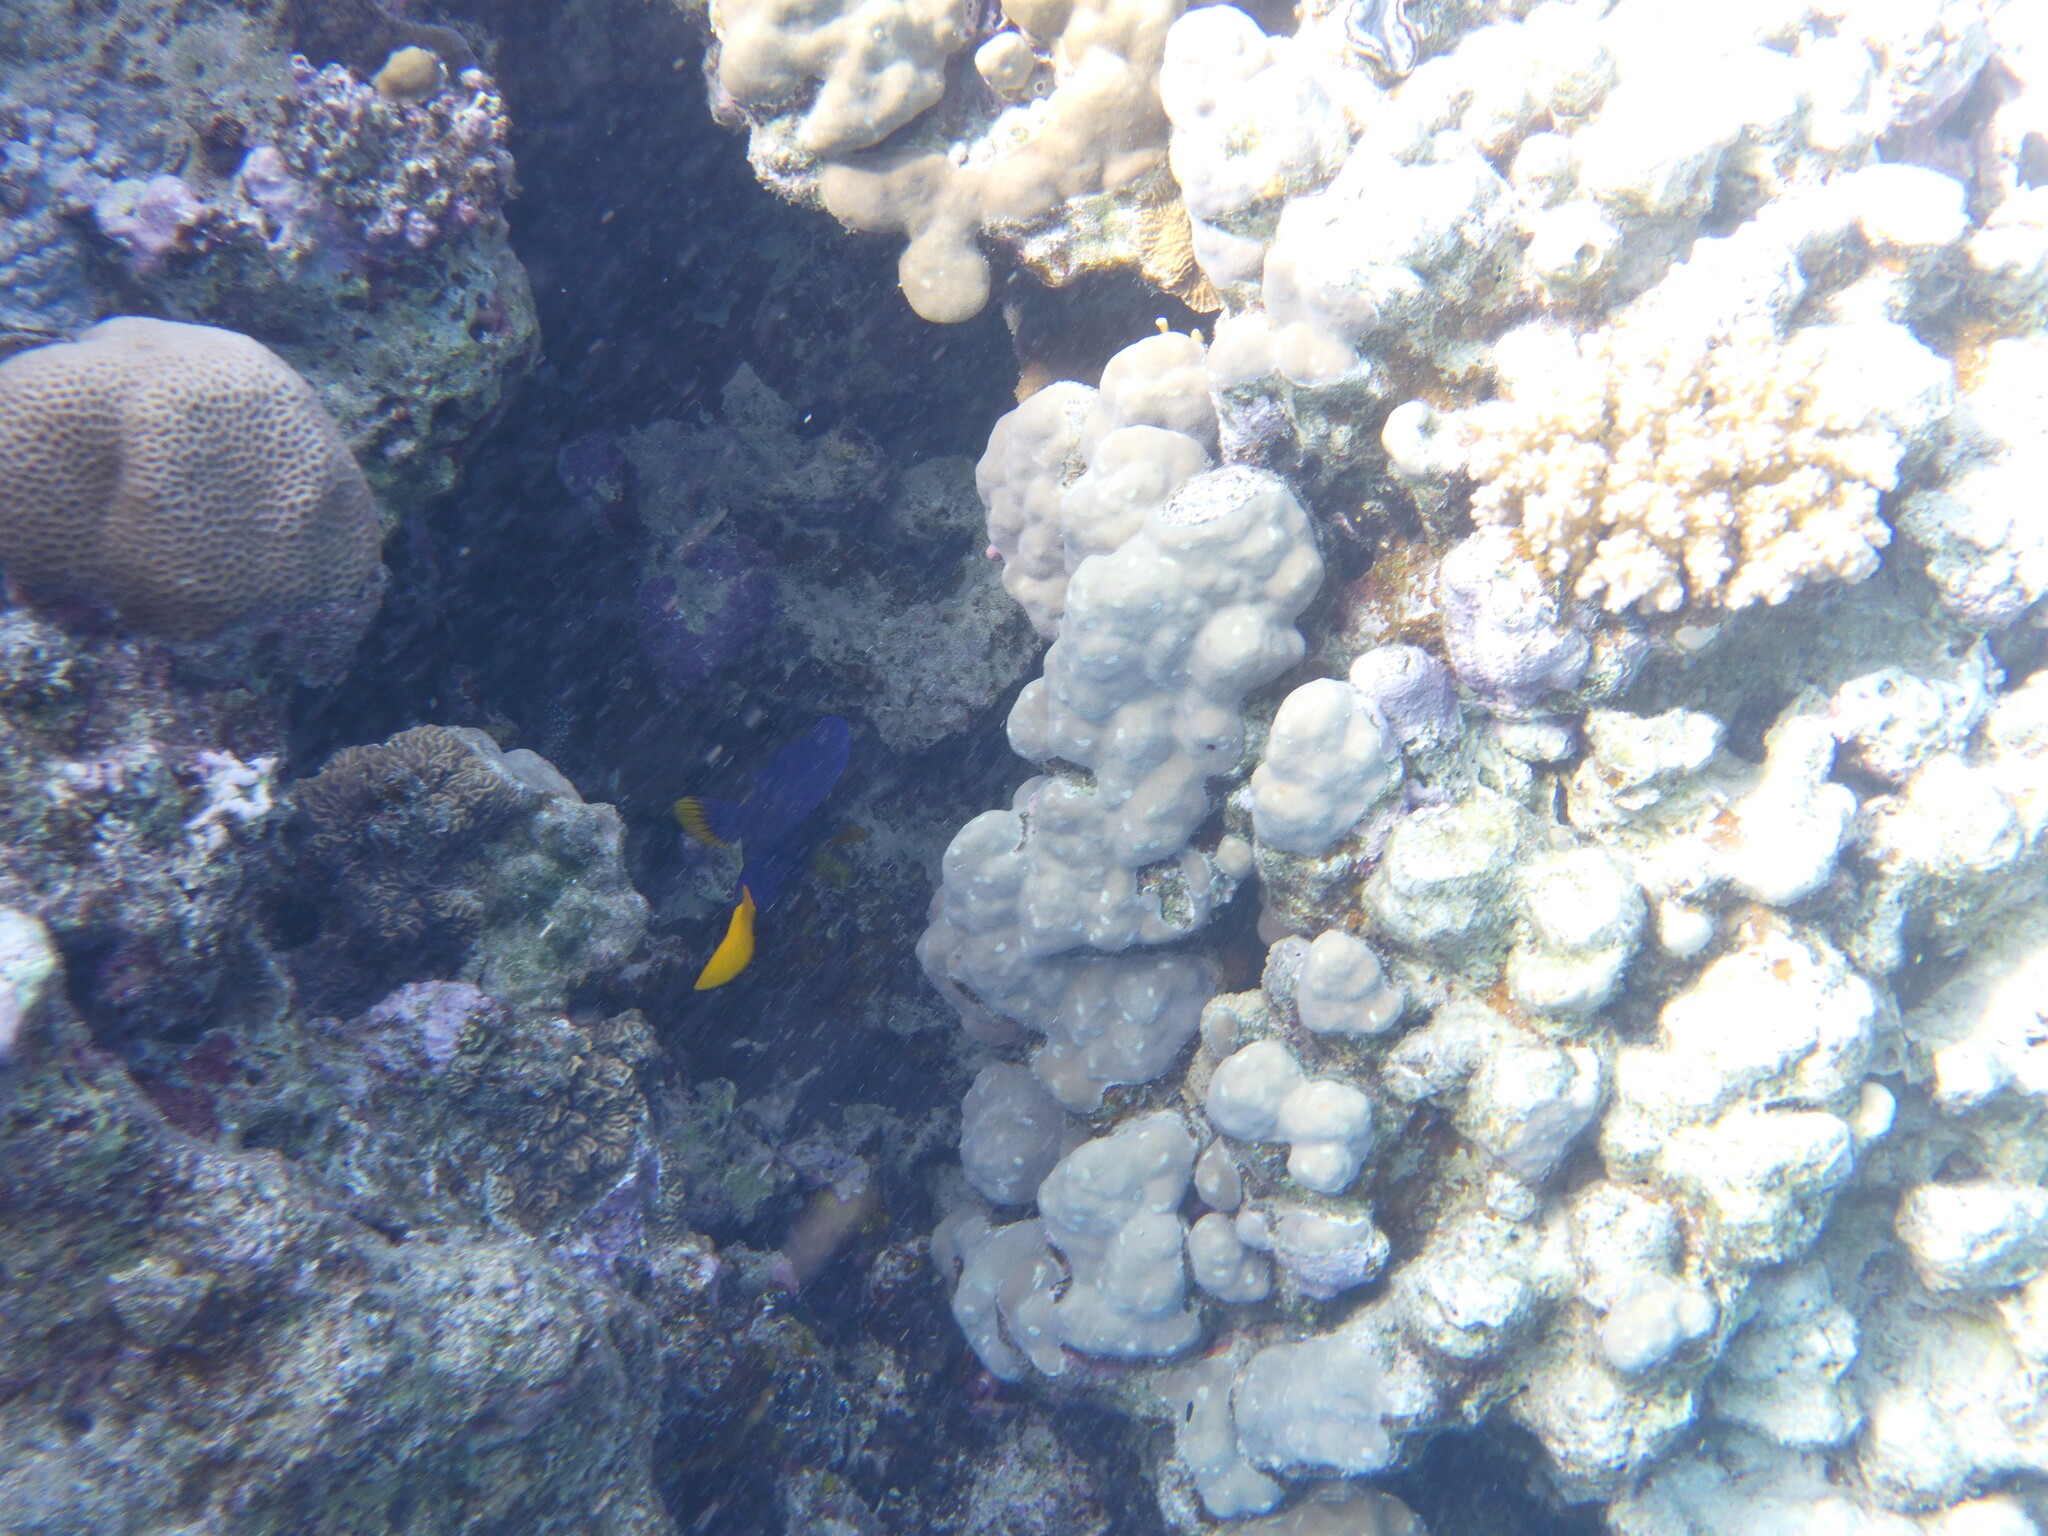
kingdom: Animalia
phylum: Chordata
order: Perciformes
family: Acanthuridae
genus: Zebrasoma
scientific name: Zebrasoma xanthurum
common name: Purple tang
